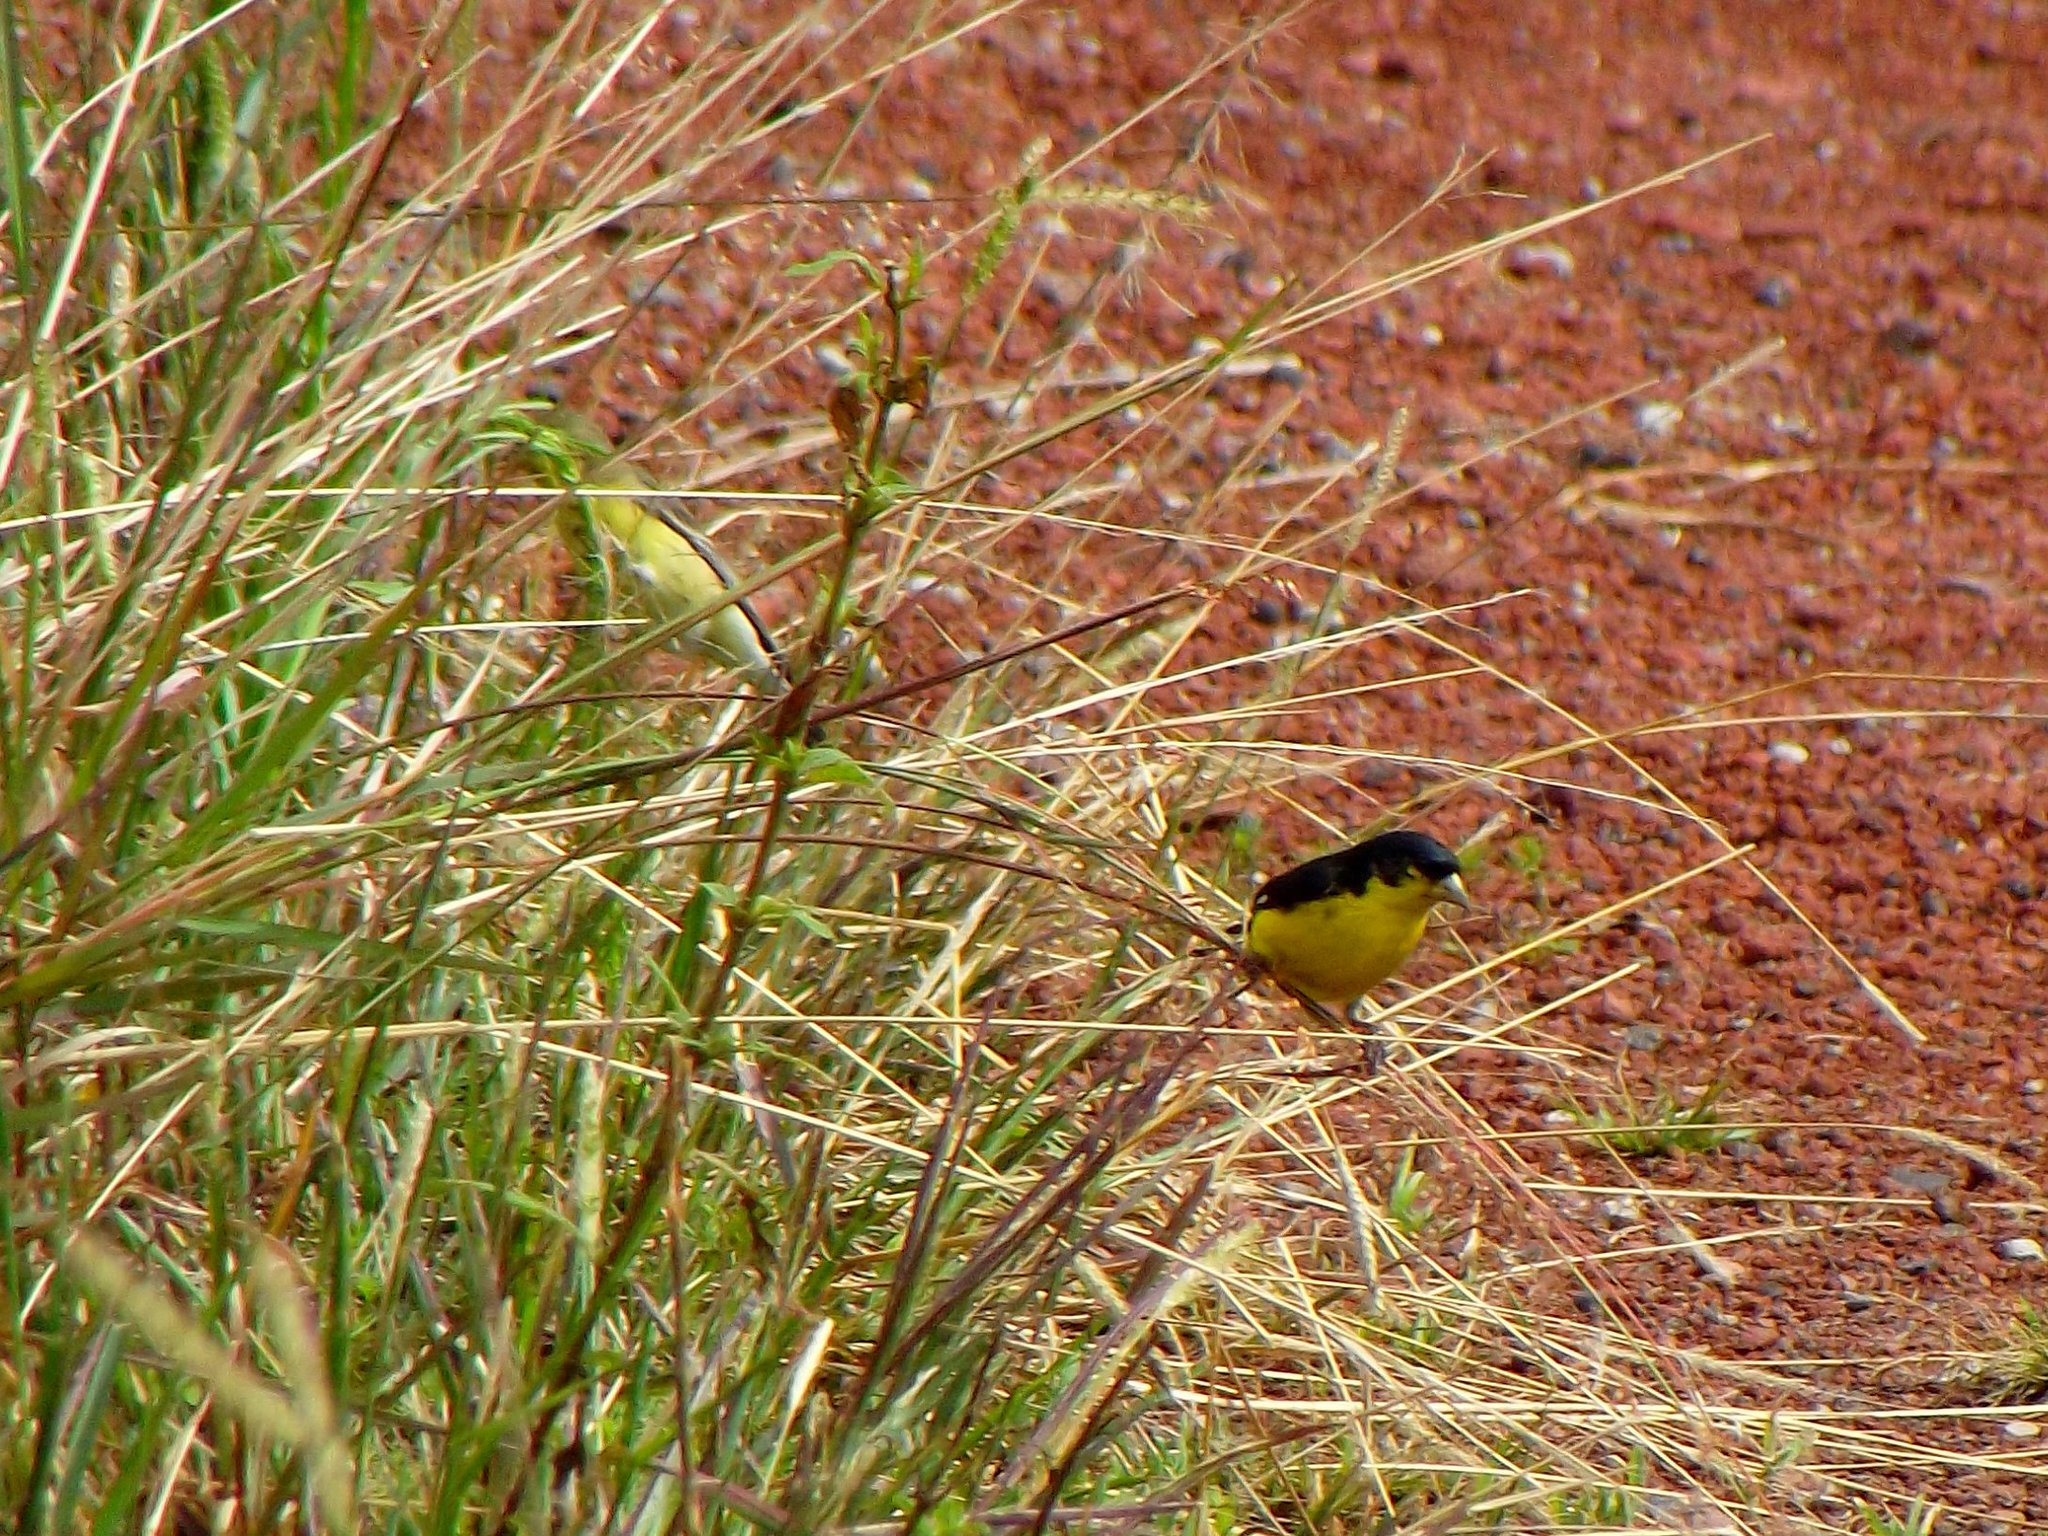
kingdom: Animalia
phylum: Chordata
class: Aves
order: Passeriformes
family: Fringillidae
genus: Spinus
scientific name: Spinus psaltria
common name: Lesser goldfinch
